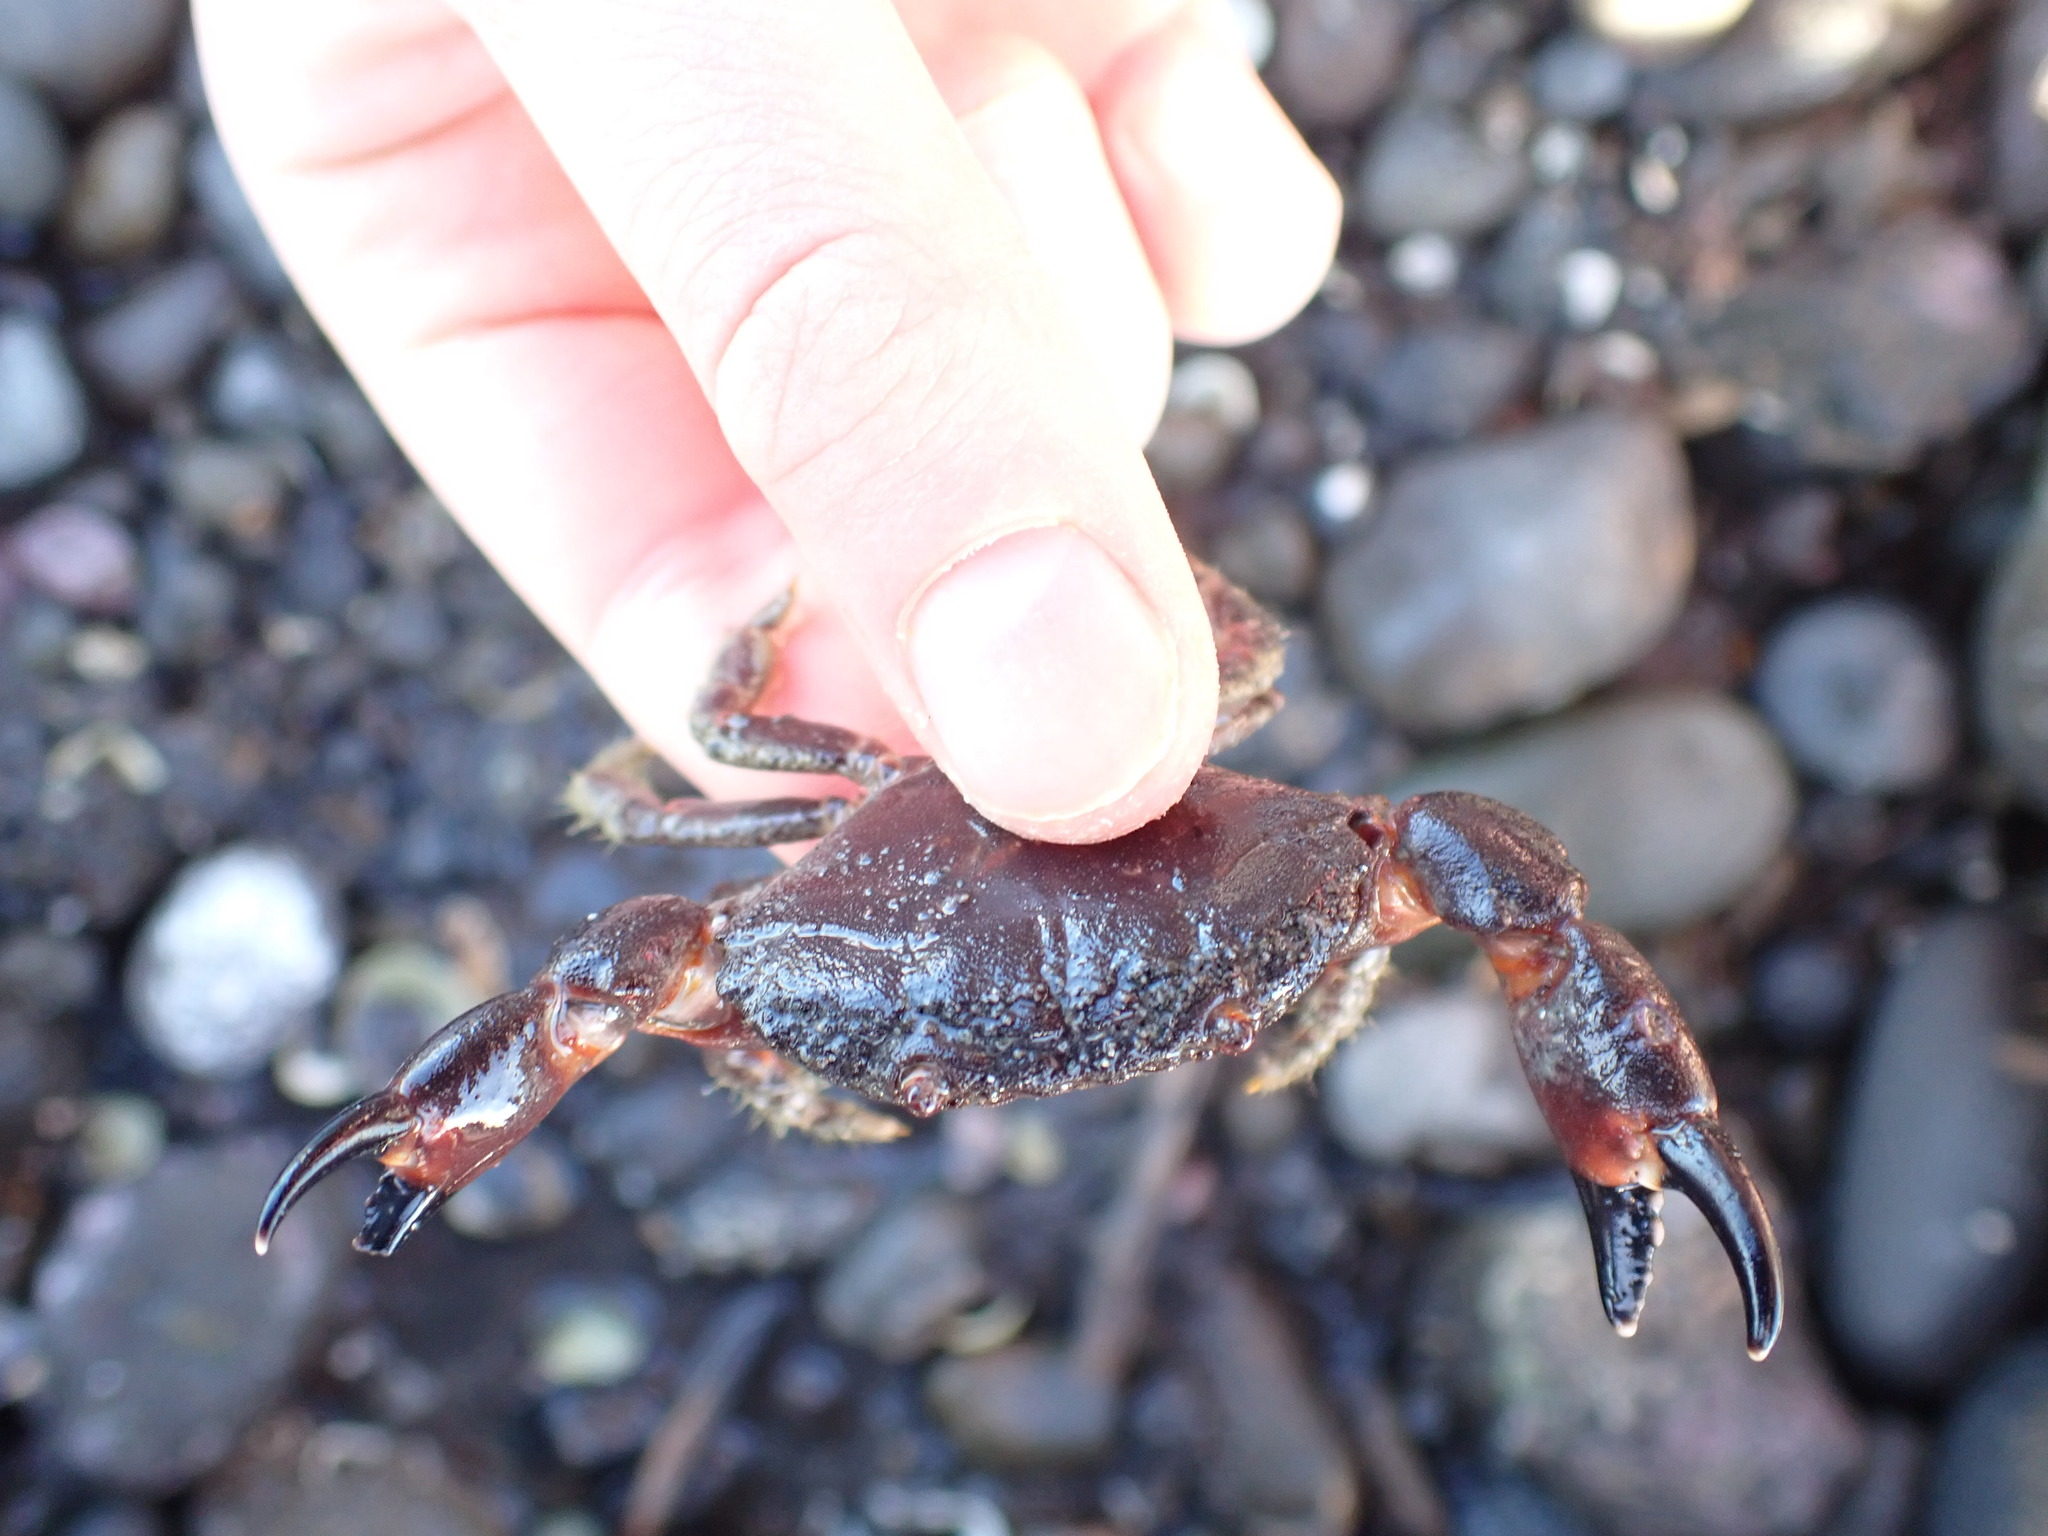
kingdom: Animalia
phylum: Arthropoda
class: Malacostraca
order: Decapoda
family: Oziidae
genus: Ozius
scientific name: Ozius deplanatus
